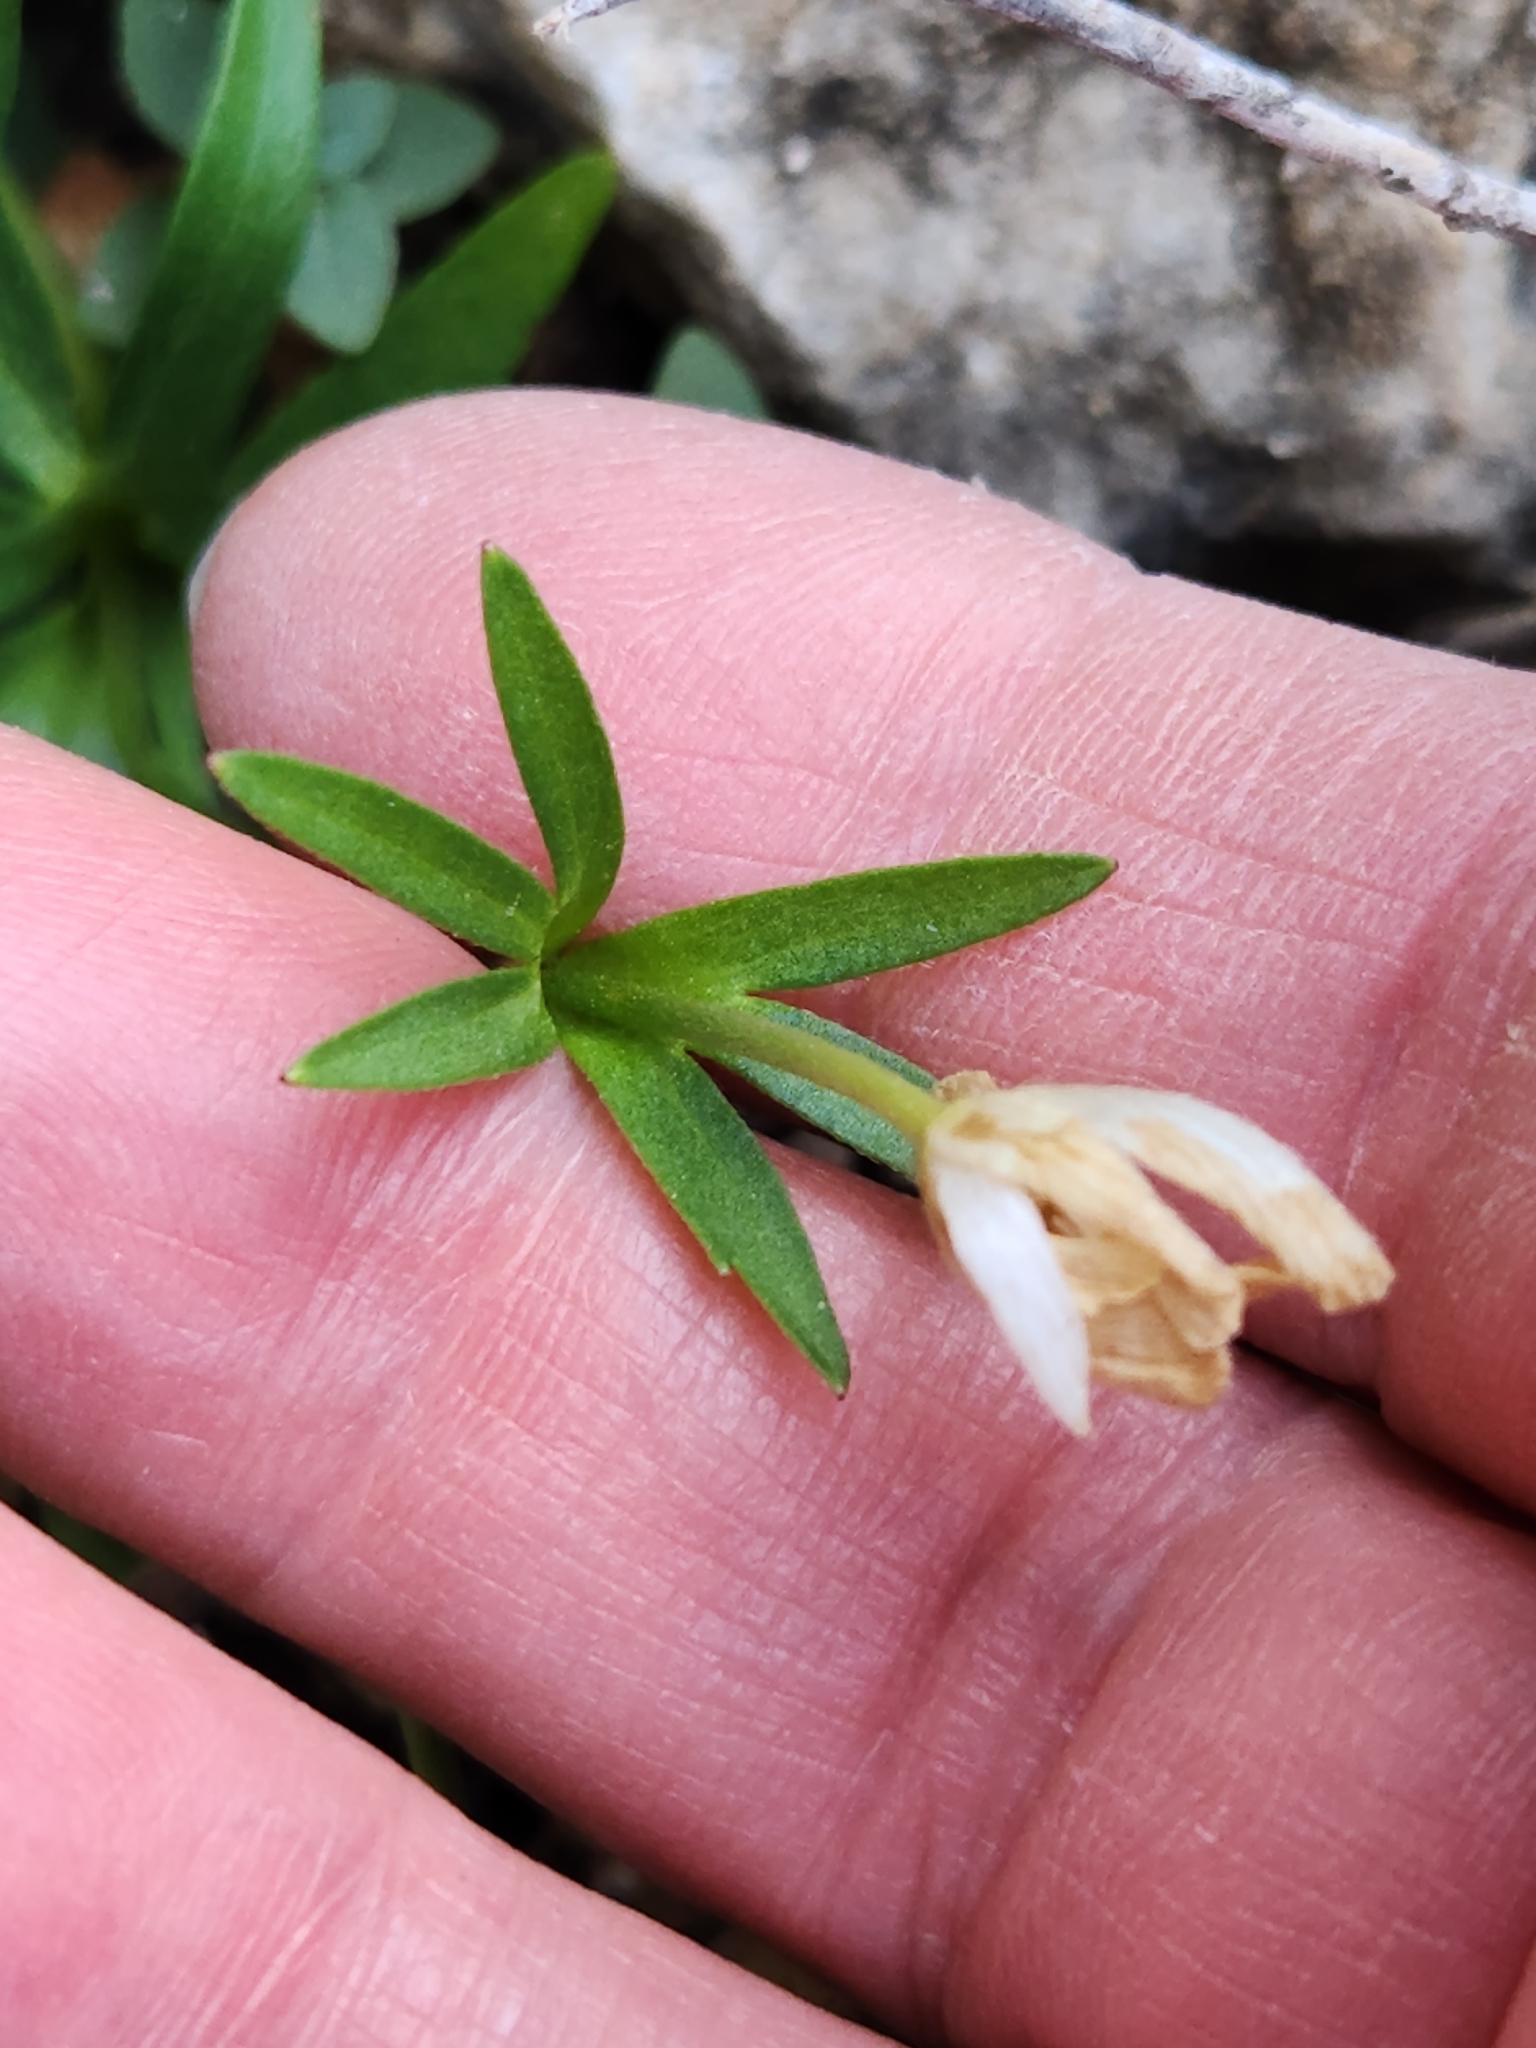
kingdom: Plantae
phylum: Tracheophyta
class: Magnoliopsida
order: Ranunculales
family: Ranunculaceae
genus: Anemone
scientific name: Anemone edwardsiana
